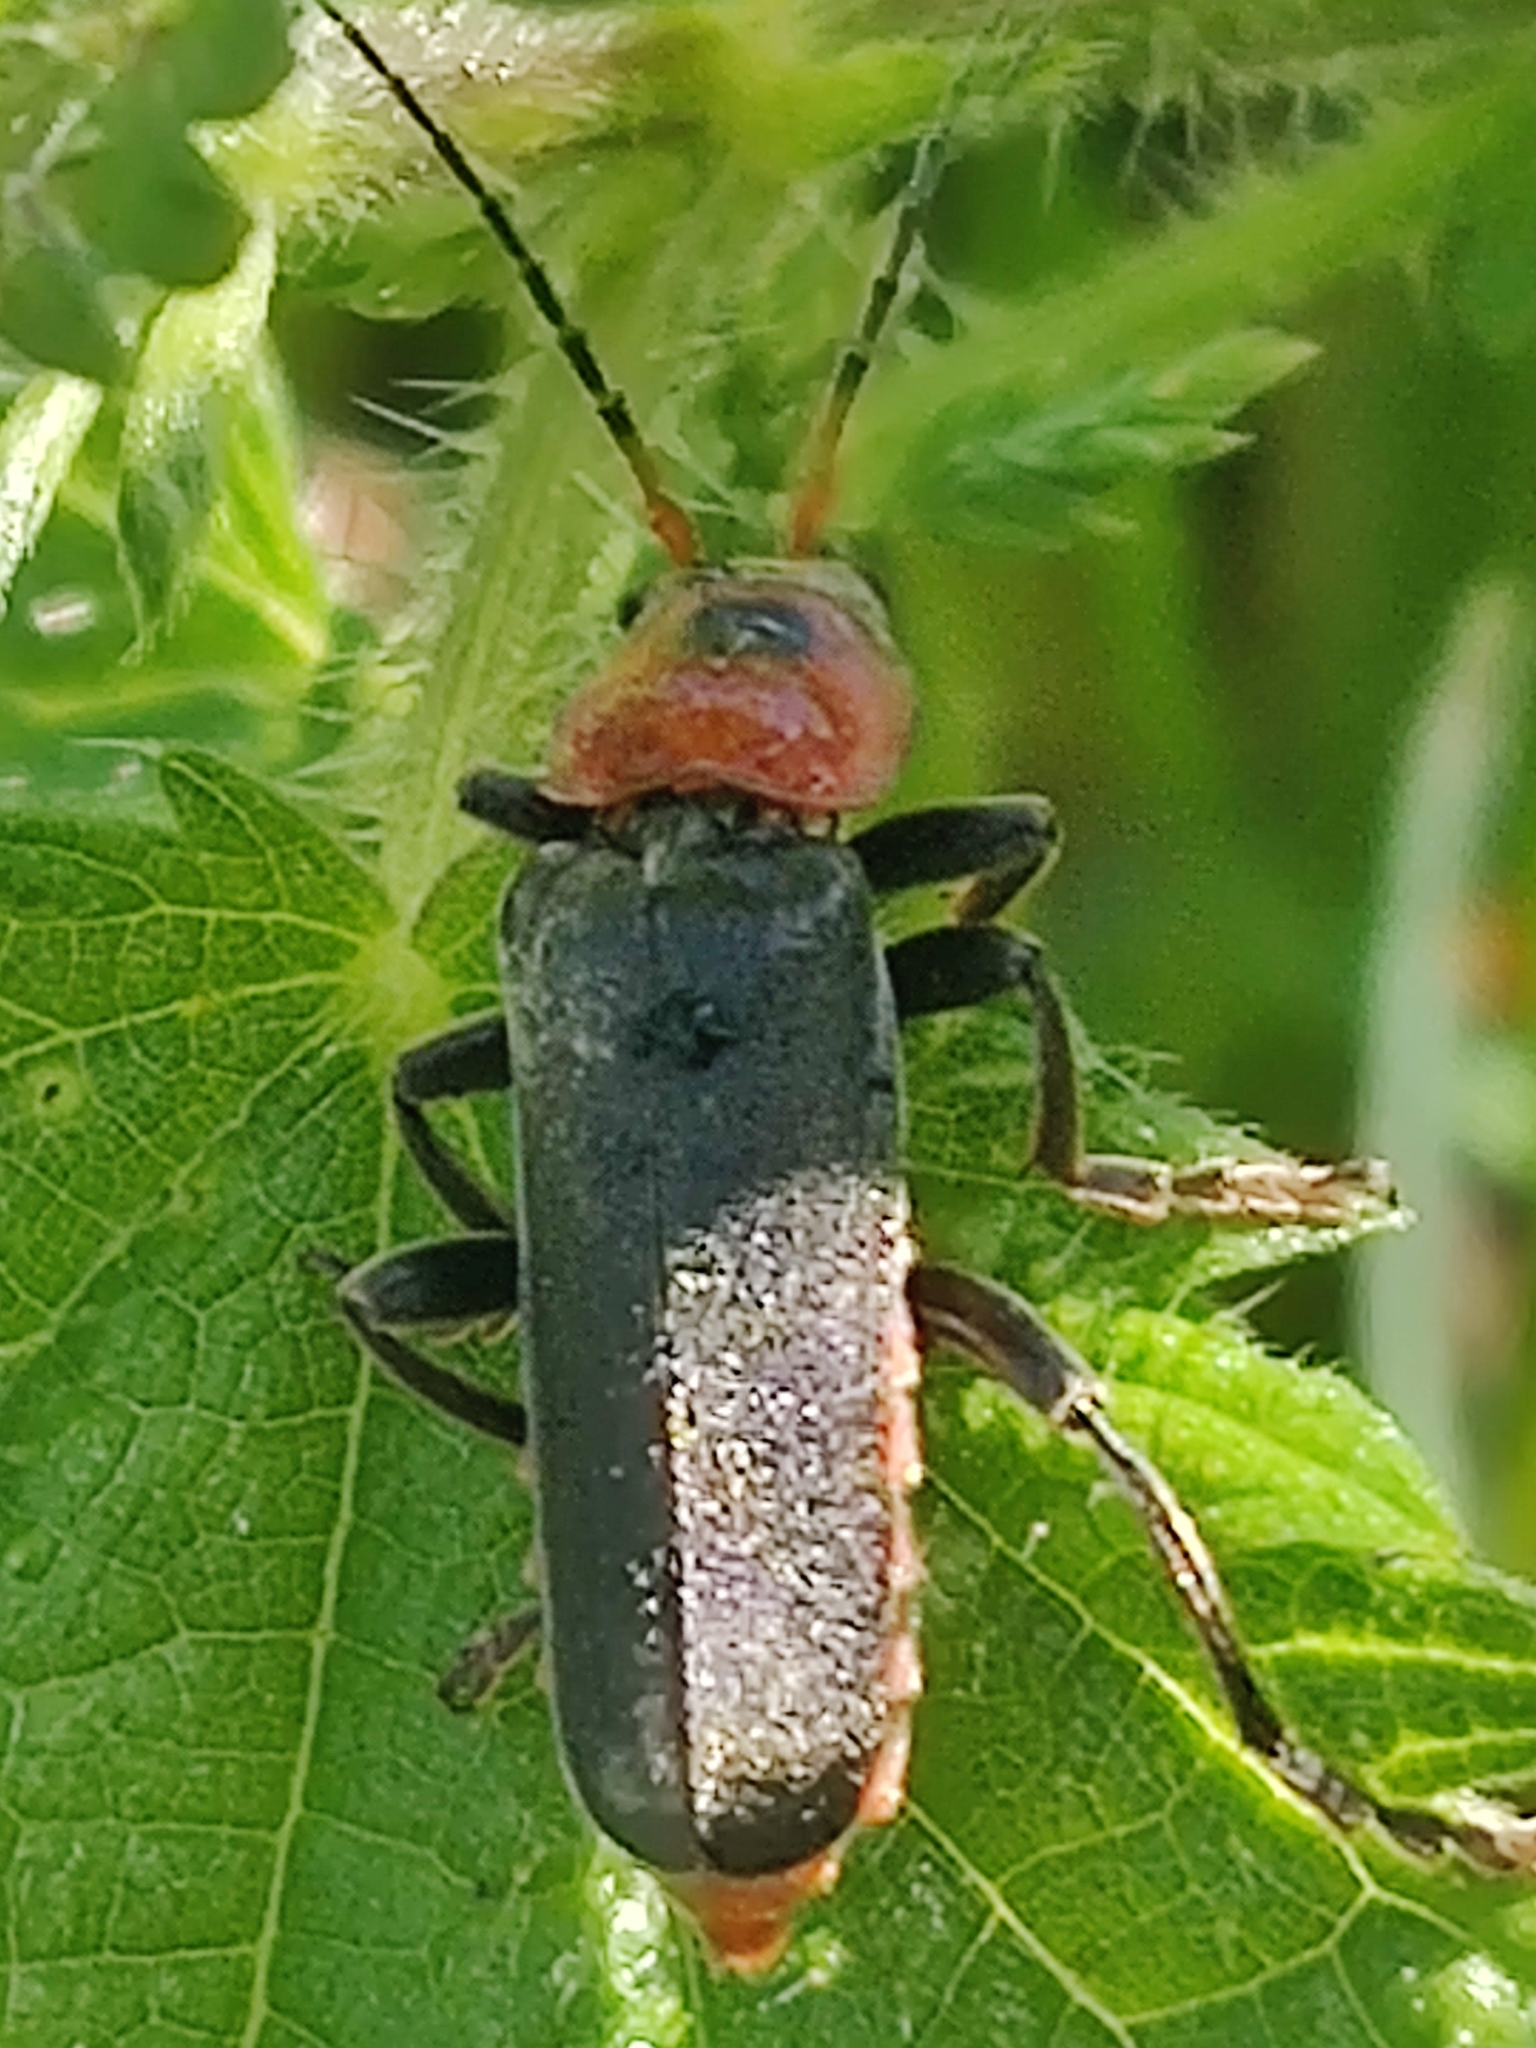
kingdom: Animalia
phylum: Arthropoda
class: Insecta
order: Coleoptera
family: Cantharidae
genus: Cantharis
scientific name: Cantharis fusca
